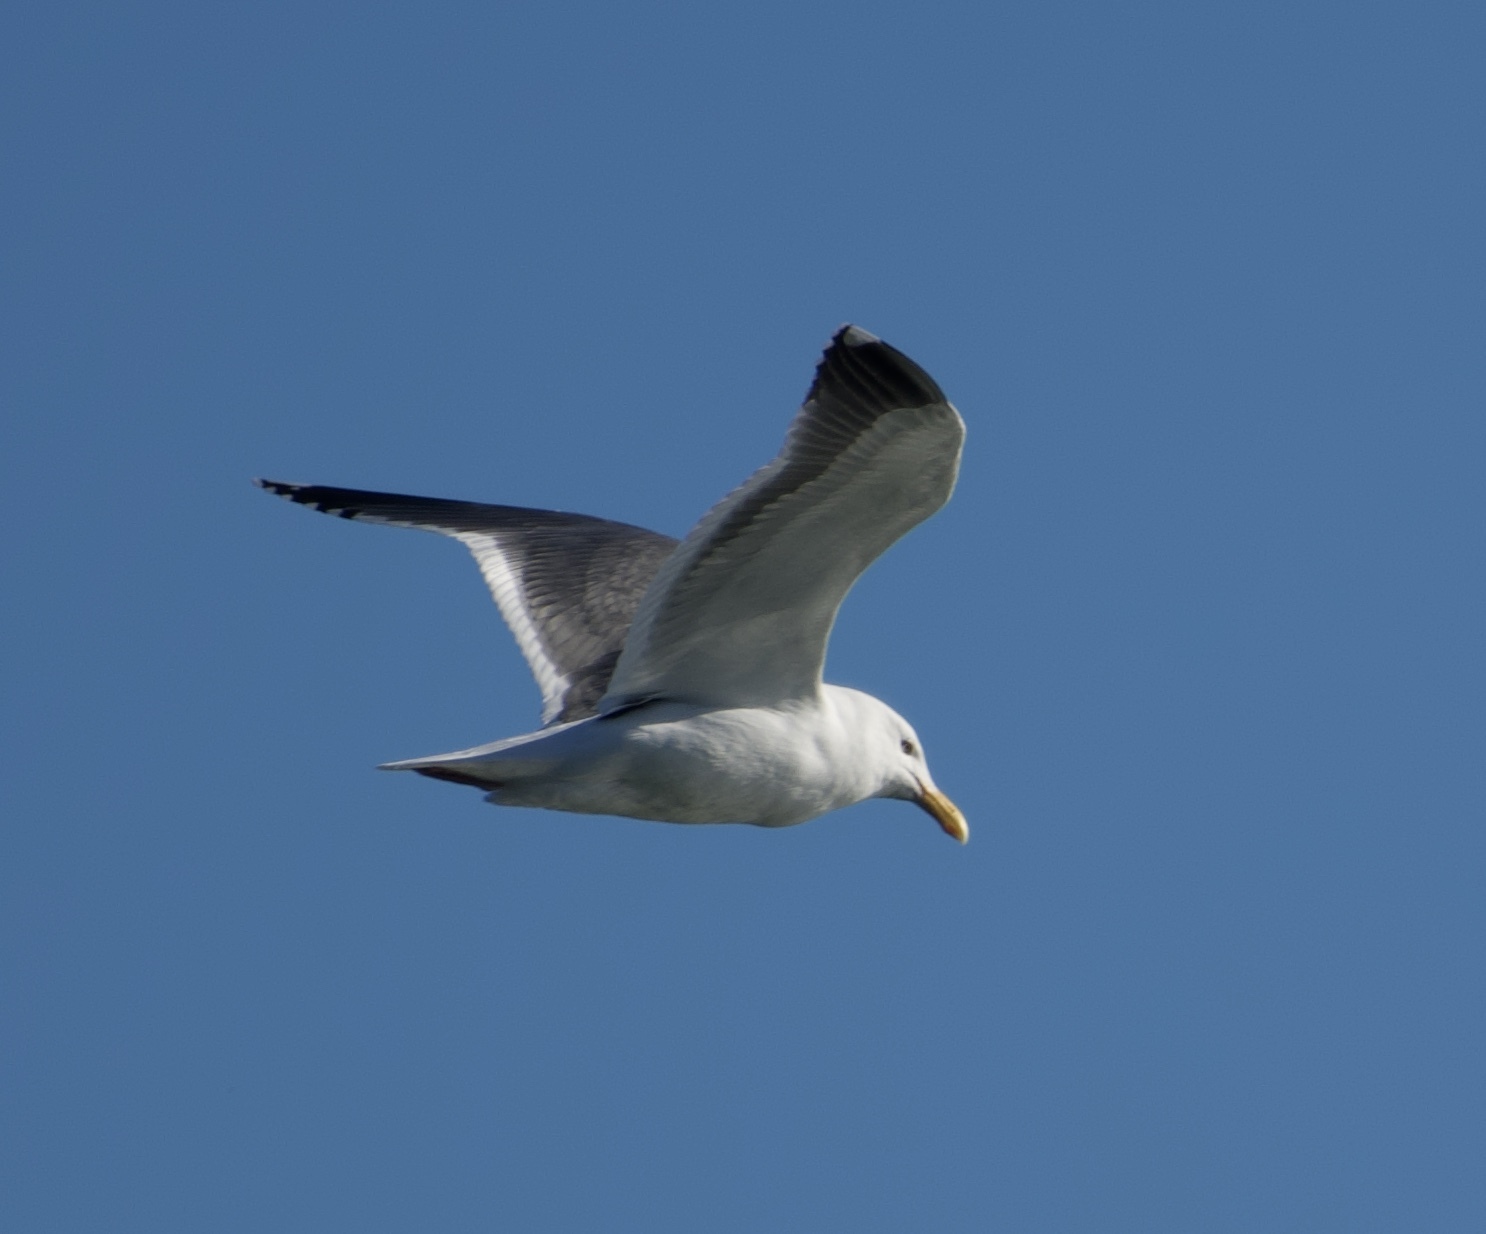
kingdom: Animalia
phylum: Chordata
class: Aves
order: Charadriiformes
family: Laridae
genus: Larus
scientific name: Larus occidentalis
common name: Western gull
